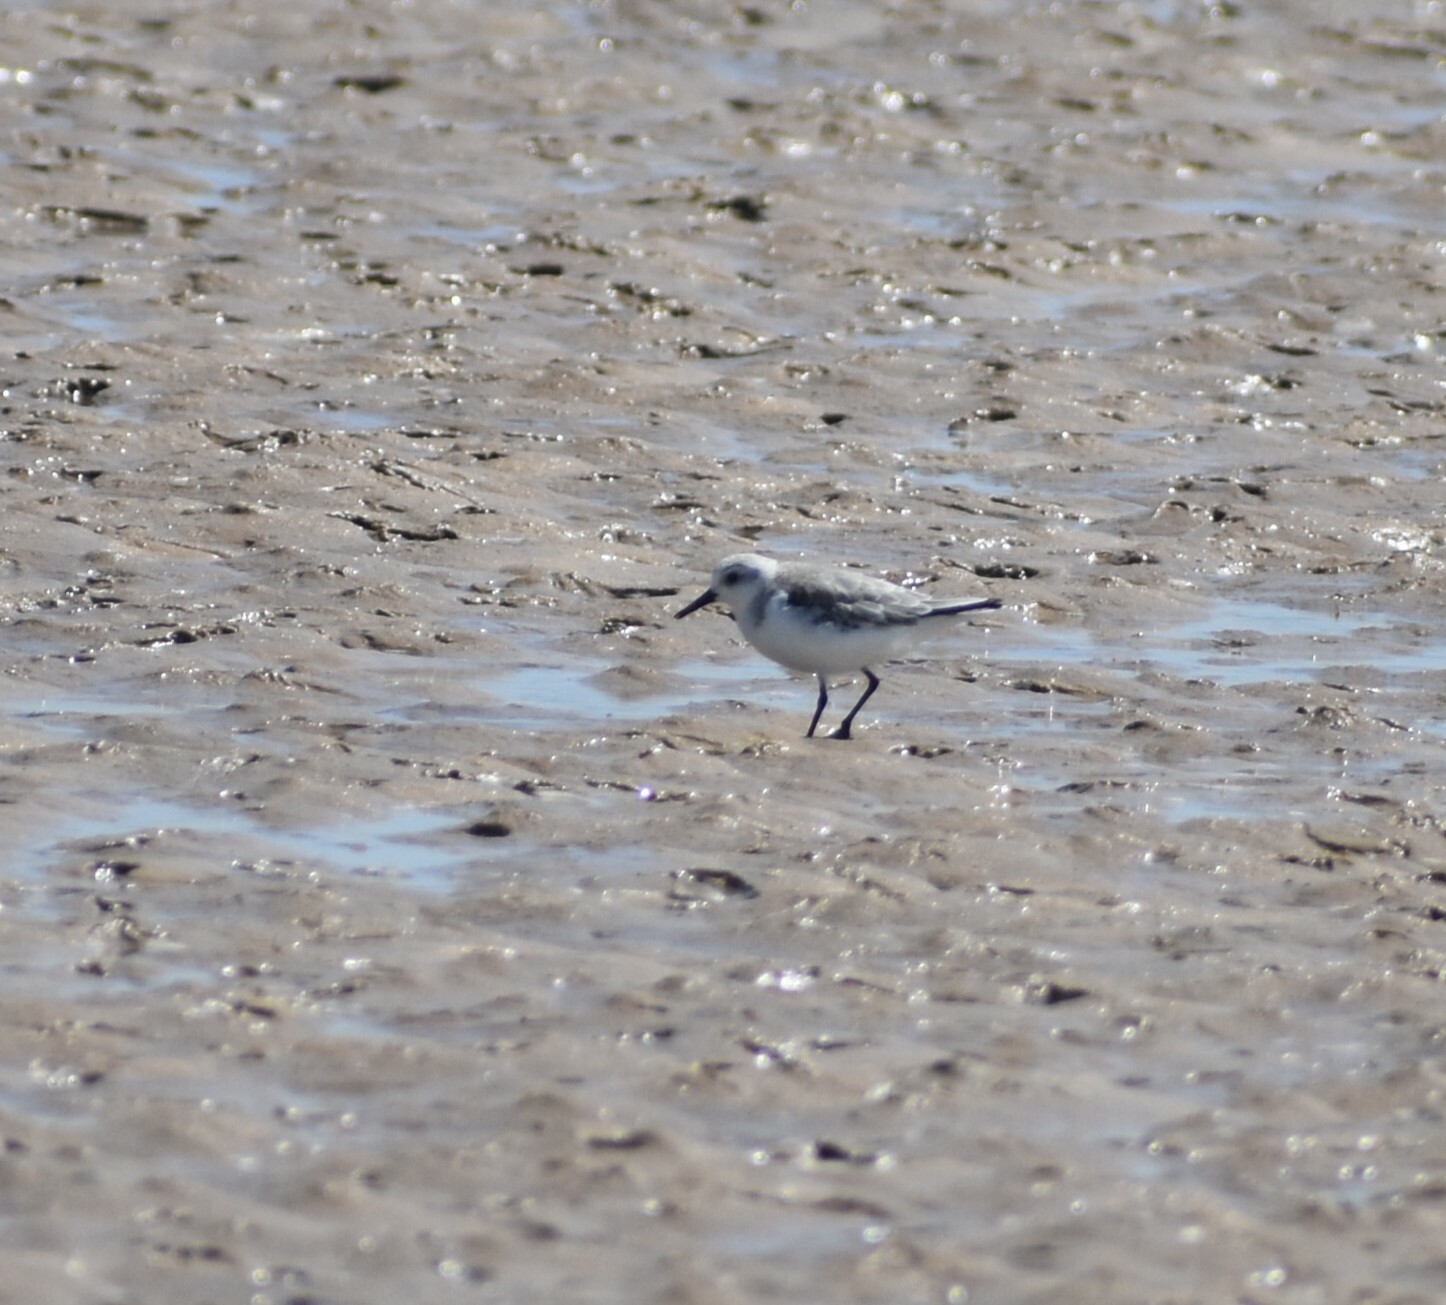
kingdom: Animalia
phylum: Chordata
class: Aves
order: Charadriiformes
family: Scolopacidae
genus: Calidris
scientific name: Calidris alba
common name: Sanderling
